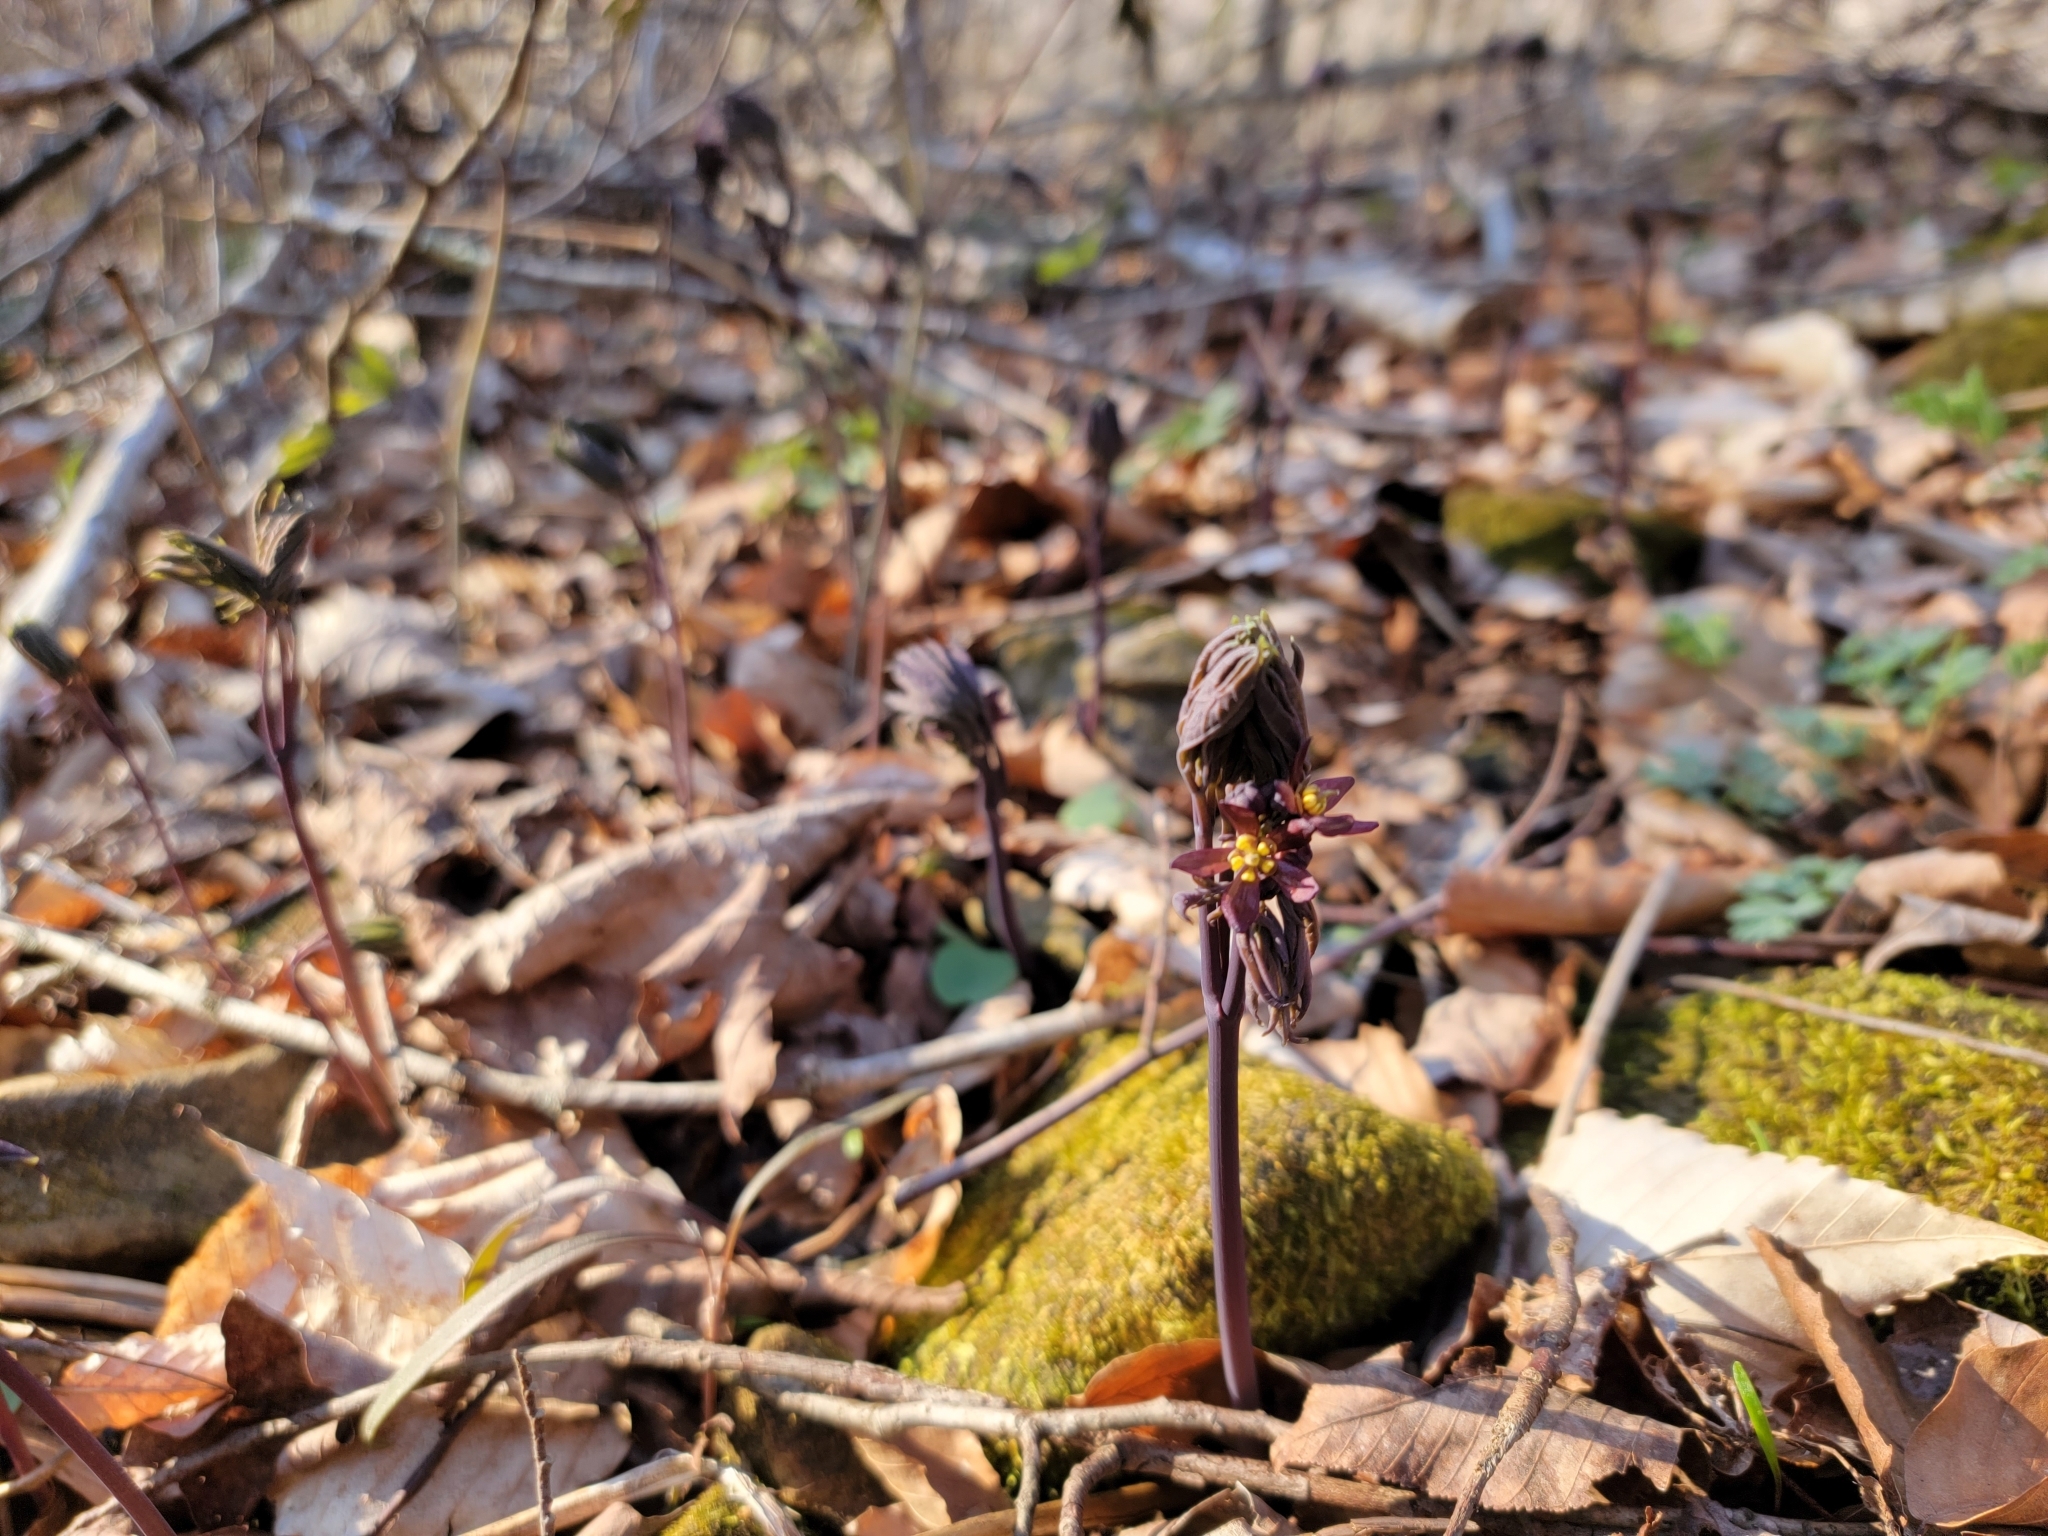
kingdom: Plantae
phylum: Tracheophyta
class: Magnoliopsida
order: Ranunculales
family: Berberidaceae
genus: Caulophyllum
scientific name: Caulophyllum giganteum
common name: Blue cohosh
